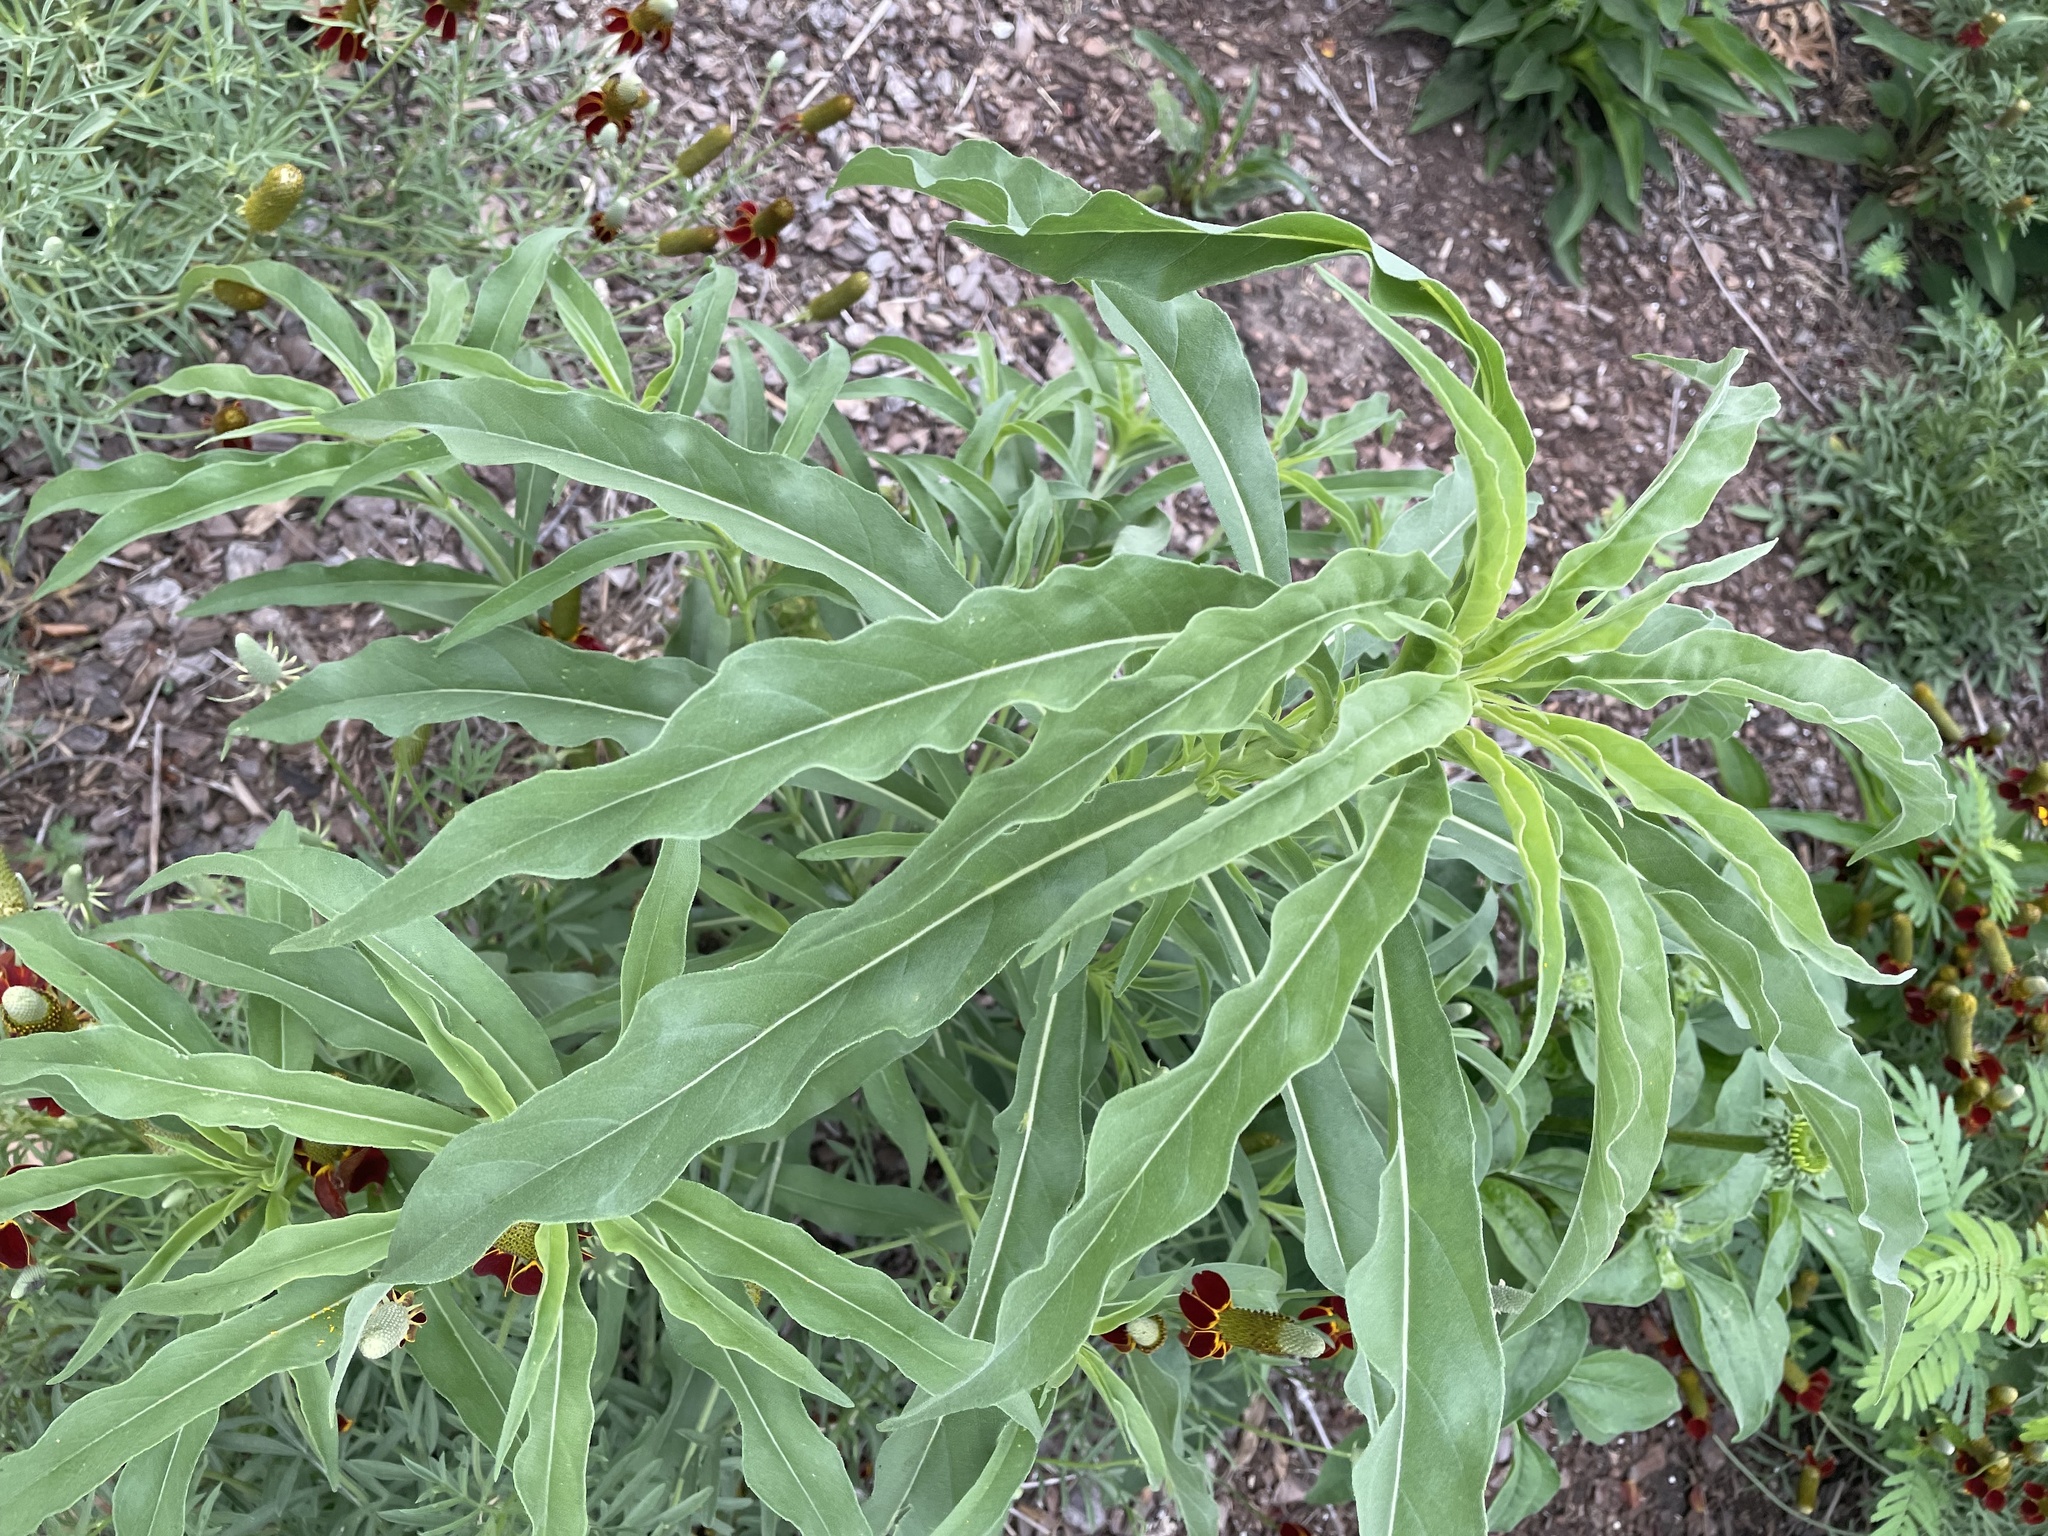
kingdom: Plantae
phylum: Tracheophyta
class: Magnoliopsida
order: Asterales
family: Asteraceae
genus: Helianthus
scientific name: Helianthus maximiliani
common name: Maximilian's sunflower
